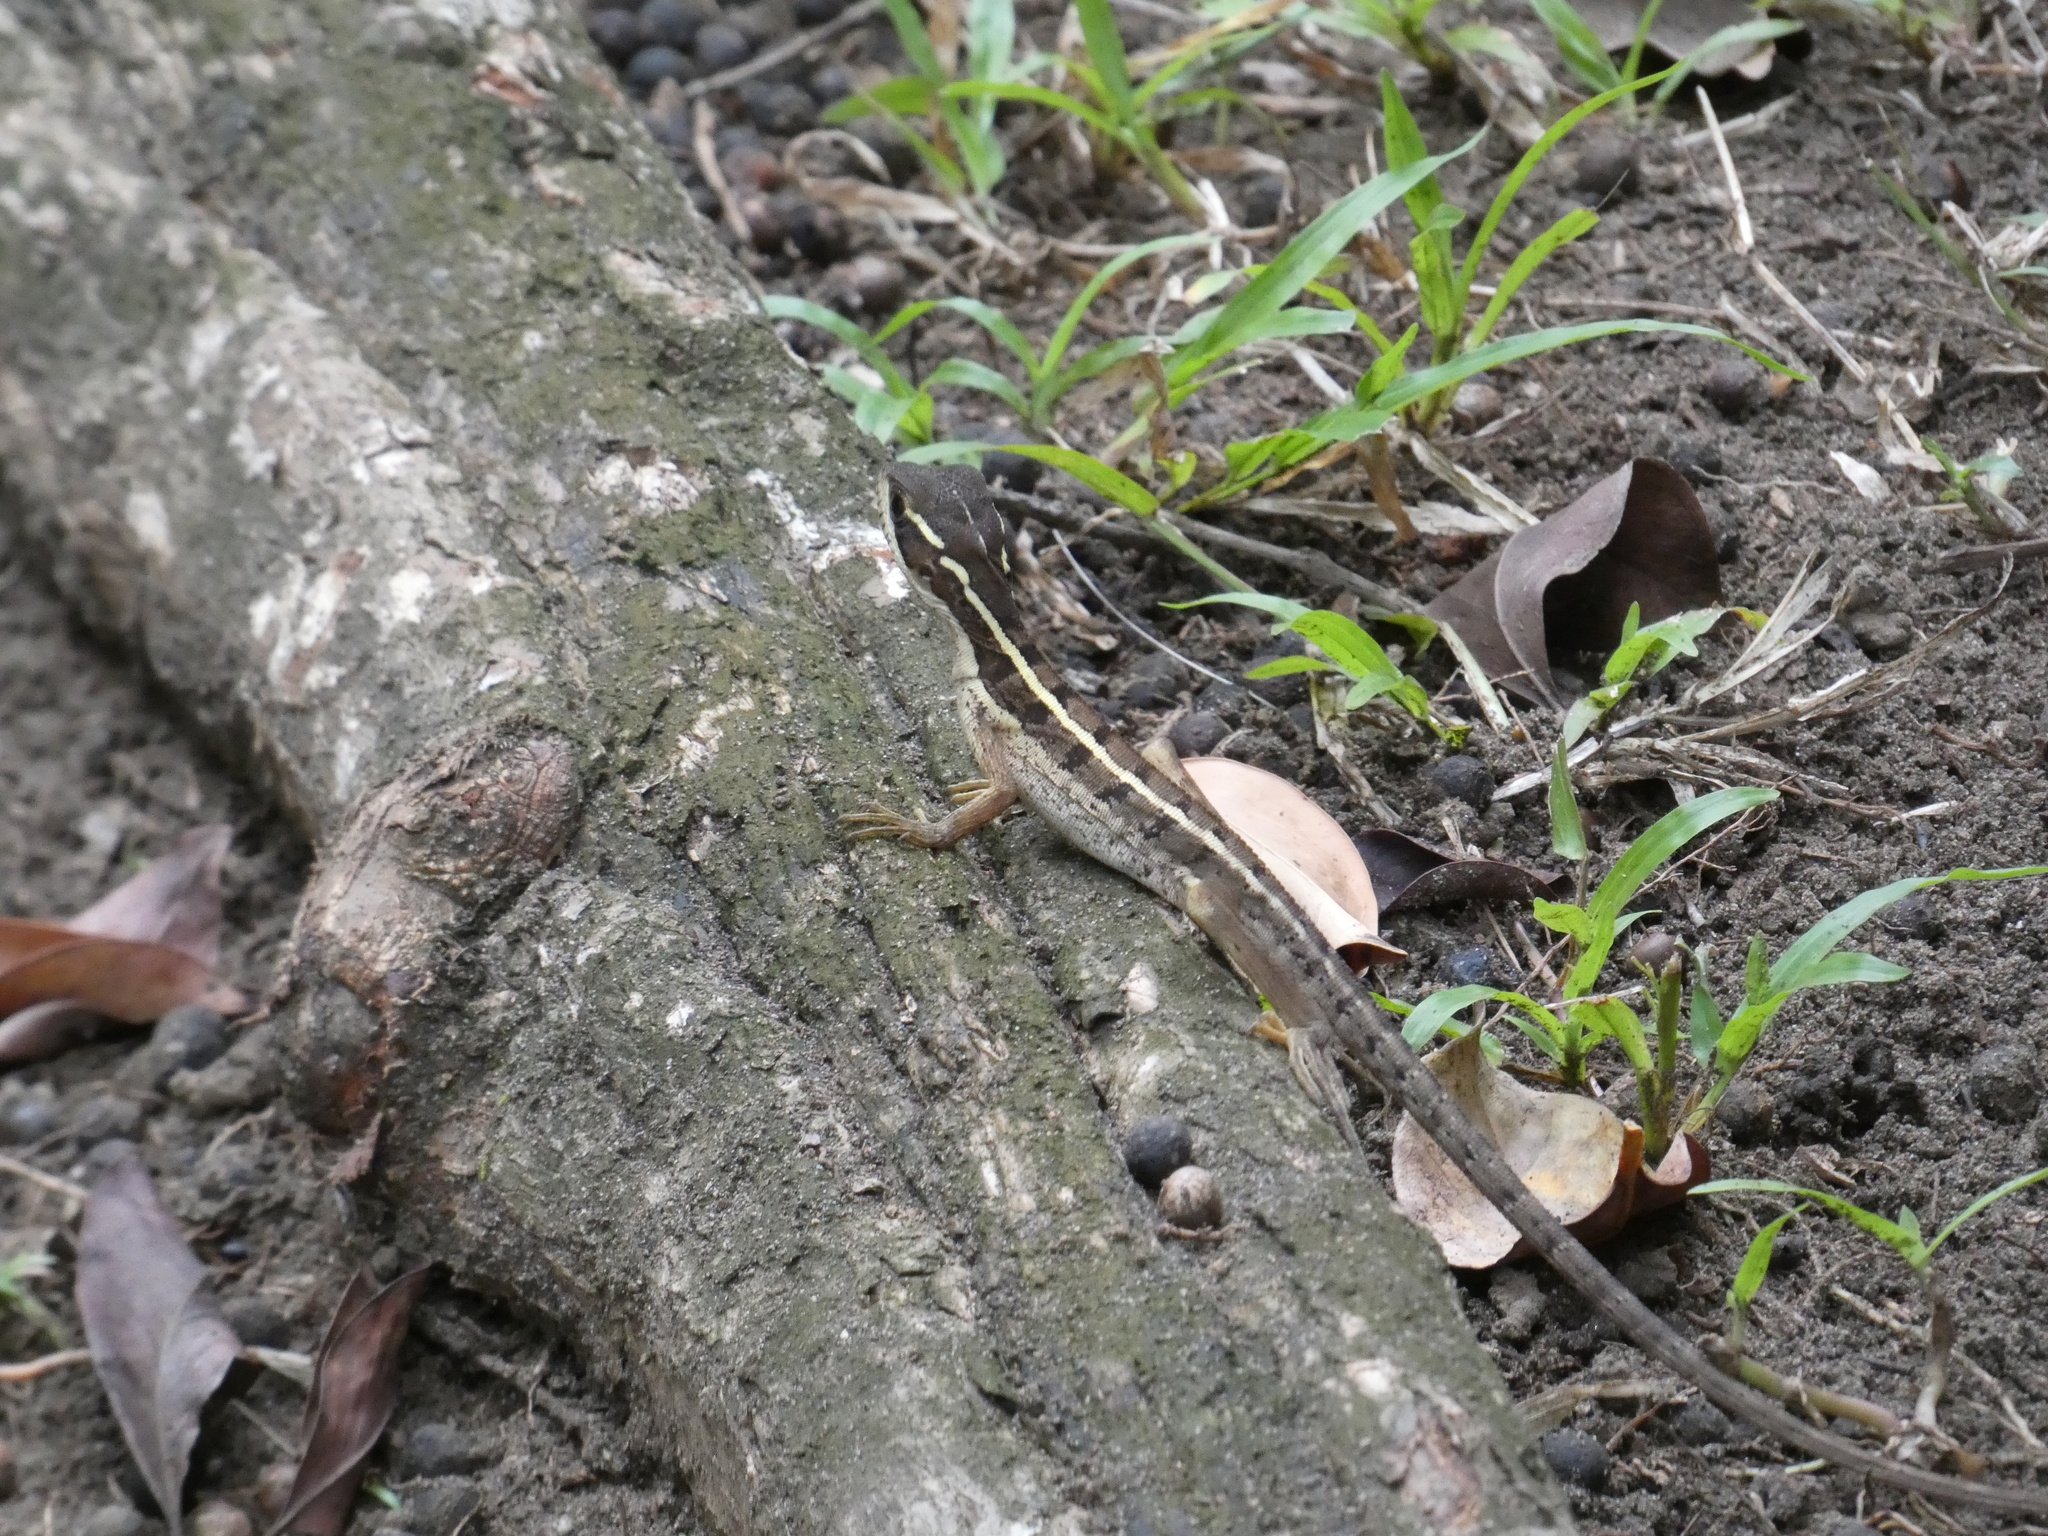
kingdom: Animalia
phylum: Chordata
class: Squamata
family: Corytophanidae
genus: Basiliscus
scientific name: Basiliscus vittatus
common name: Brown basilisk
